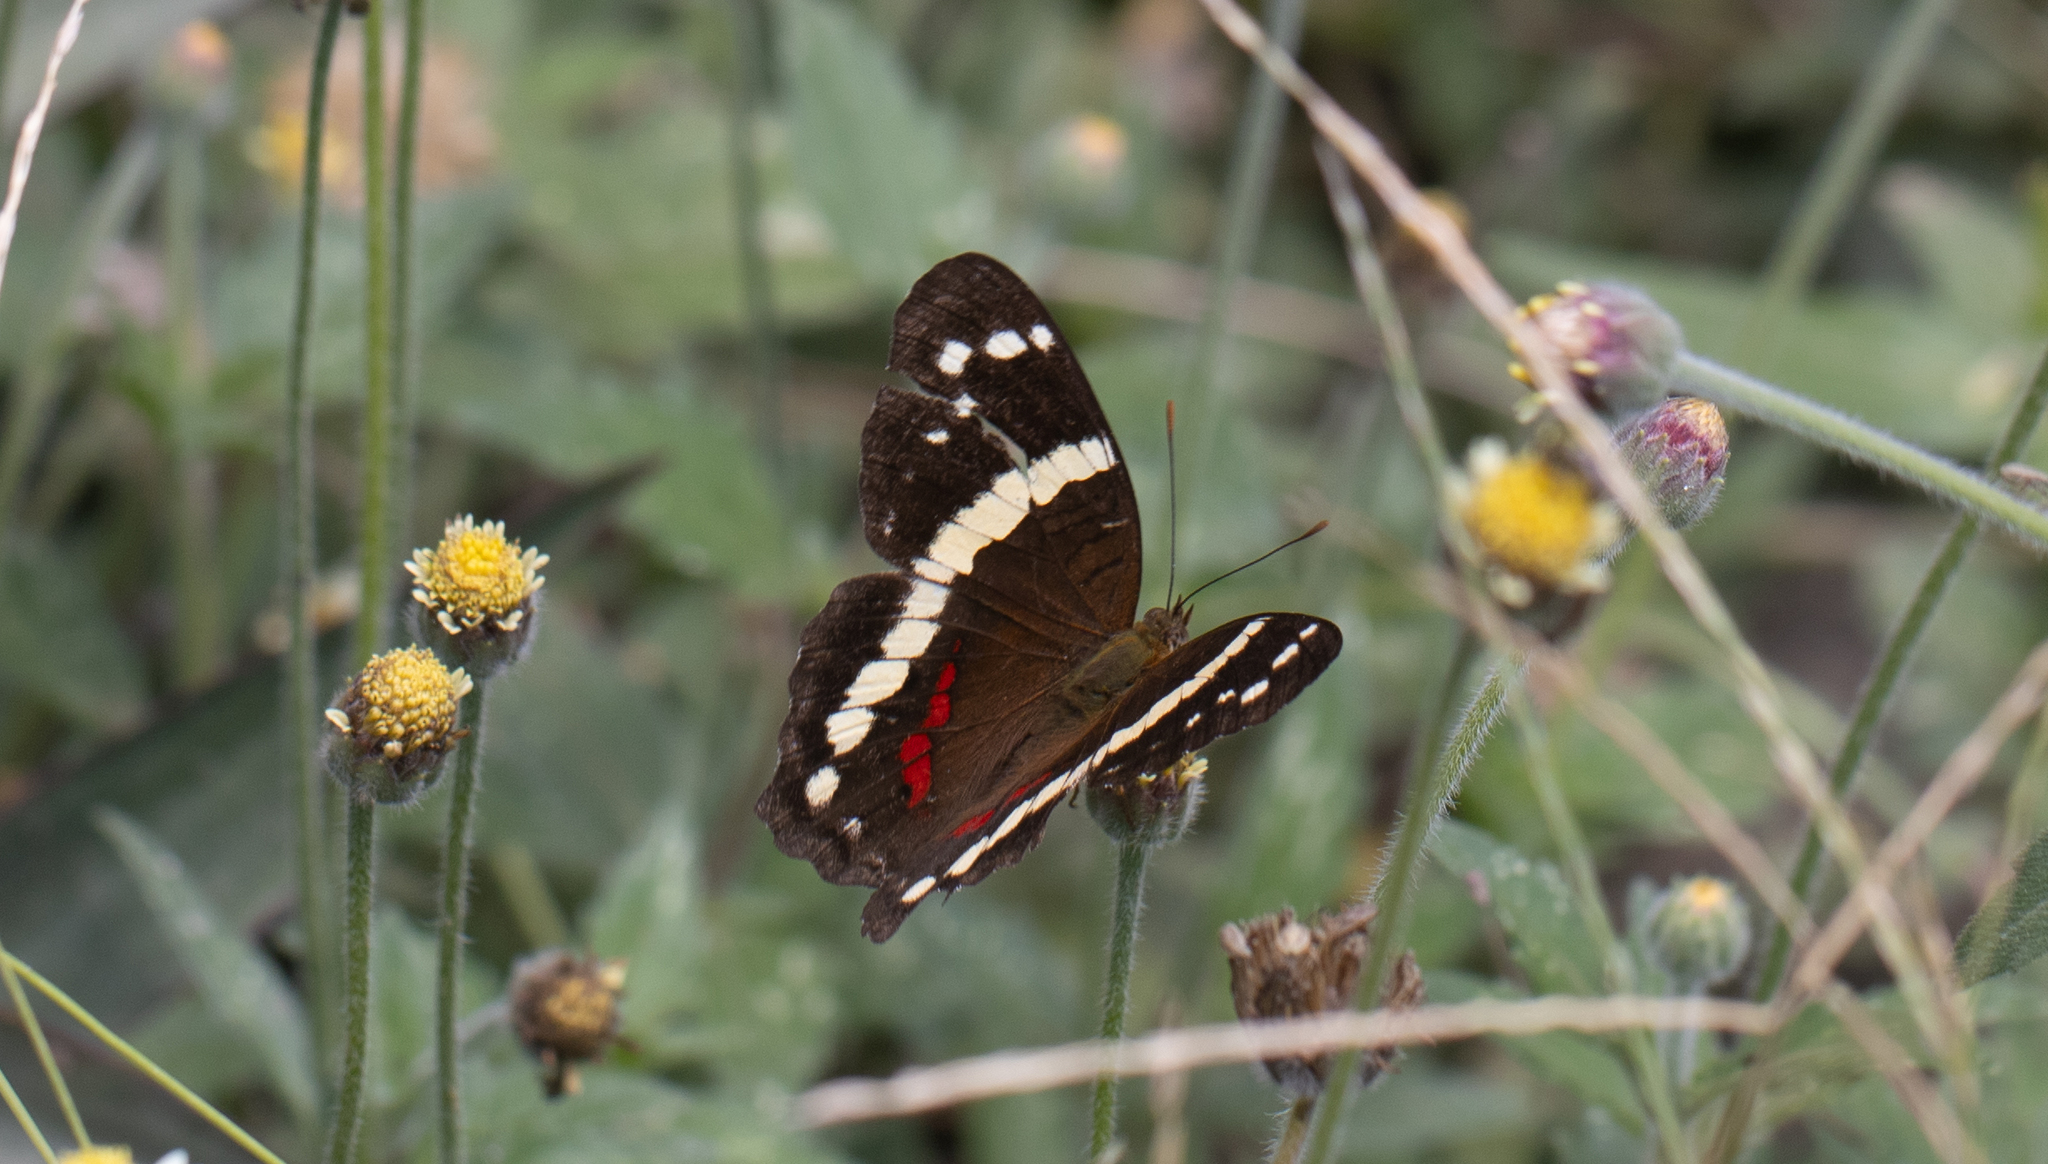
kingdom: Animalia
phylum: Arthropoda
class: Insecta
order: Lepidoptera
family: Nymphalidae
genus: Anartia
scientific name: Anartia fatima
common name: Banded peacock
